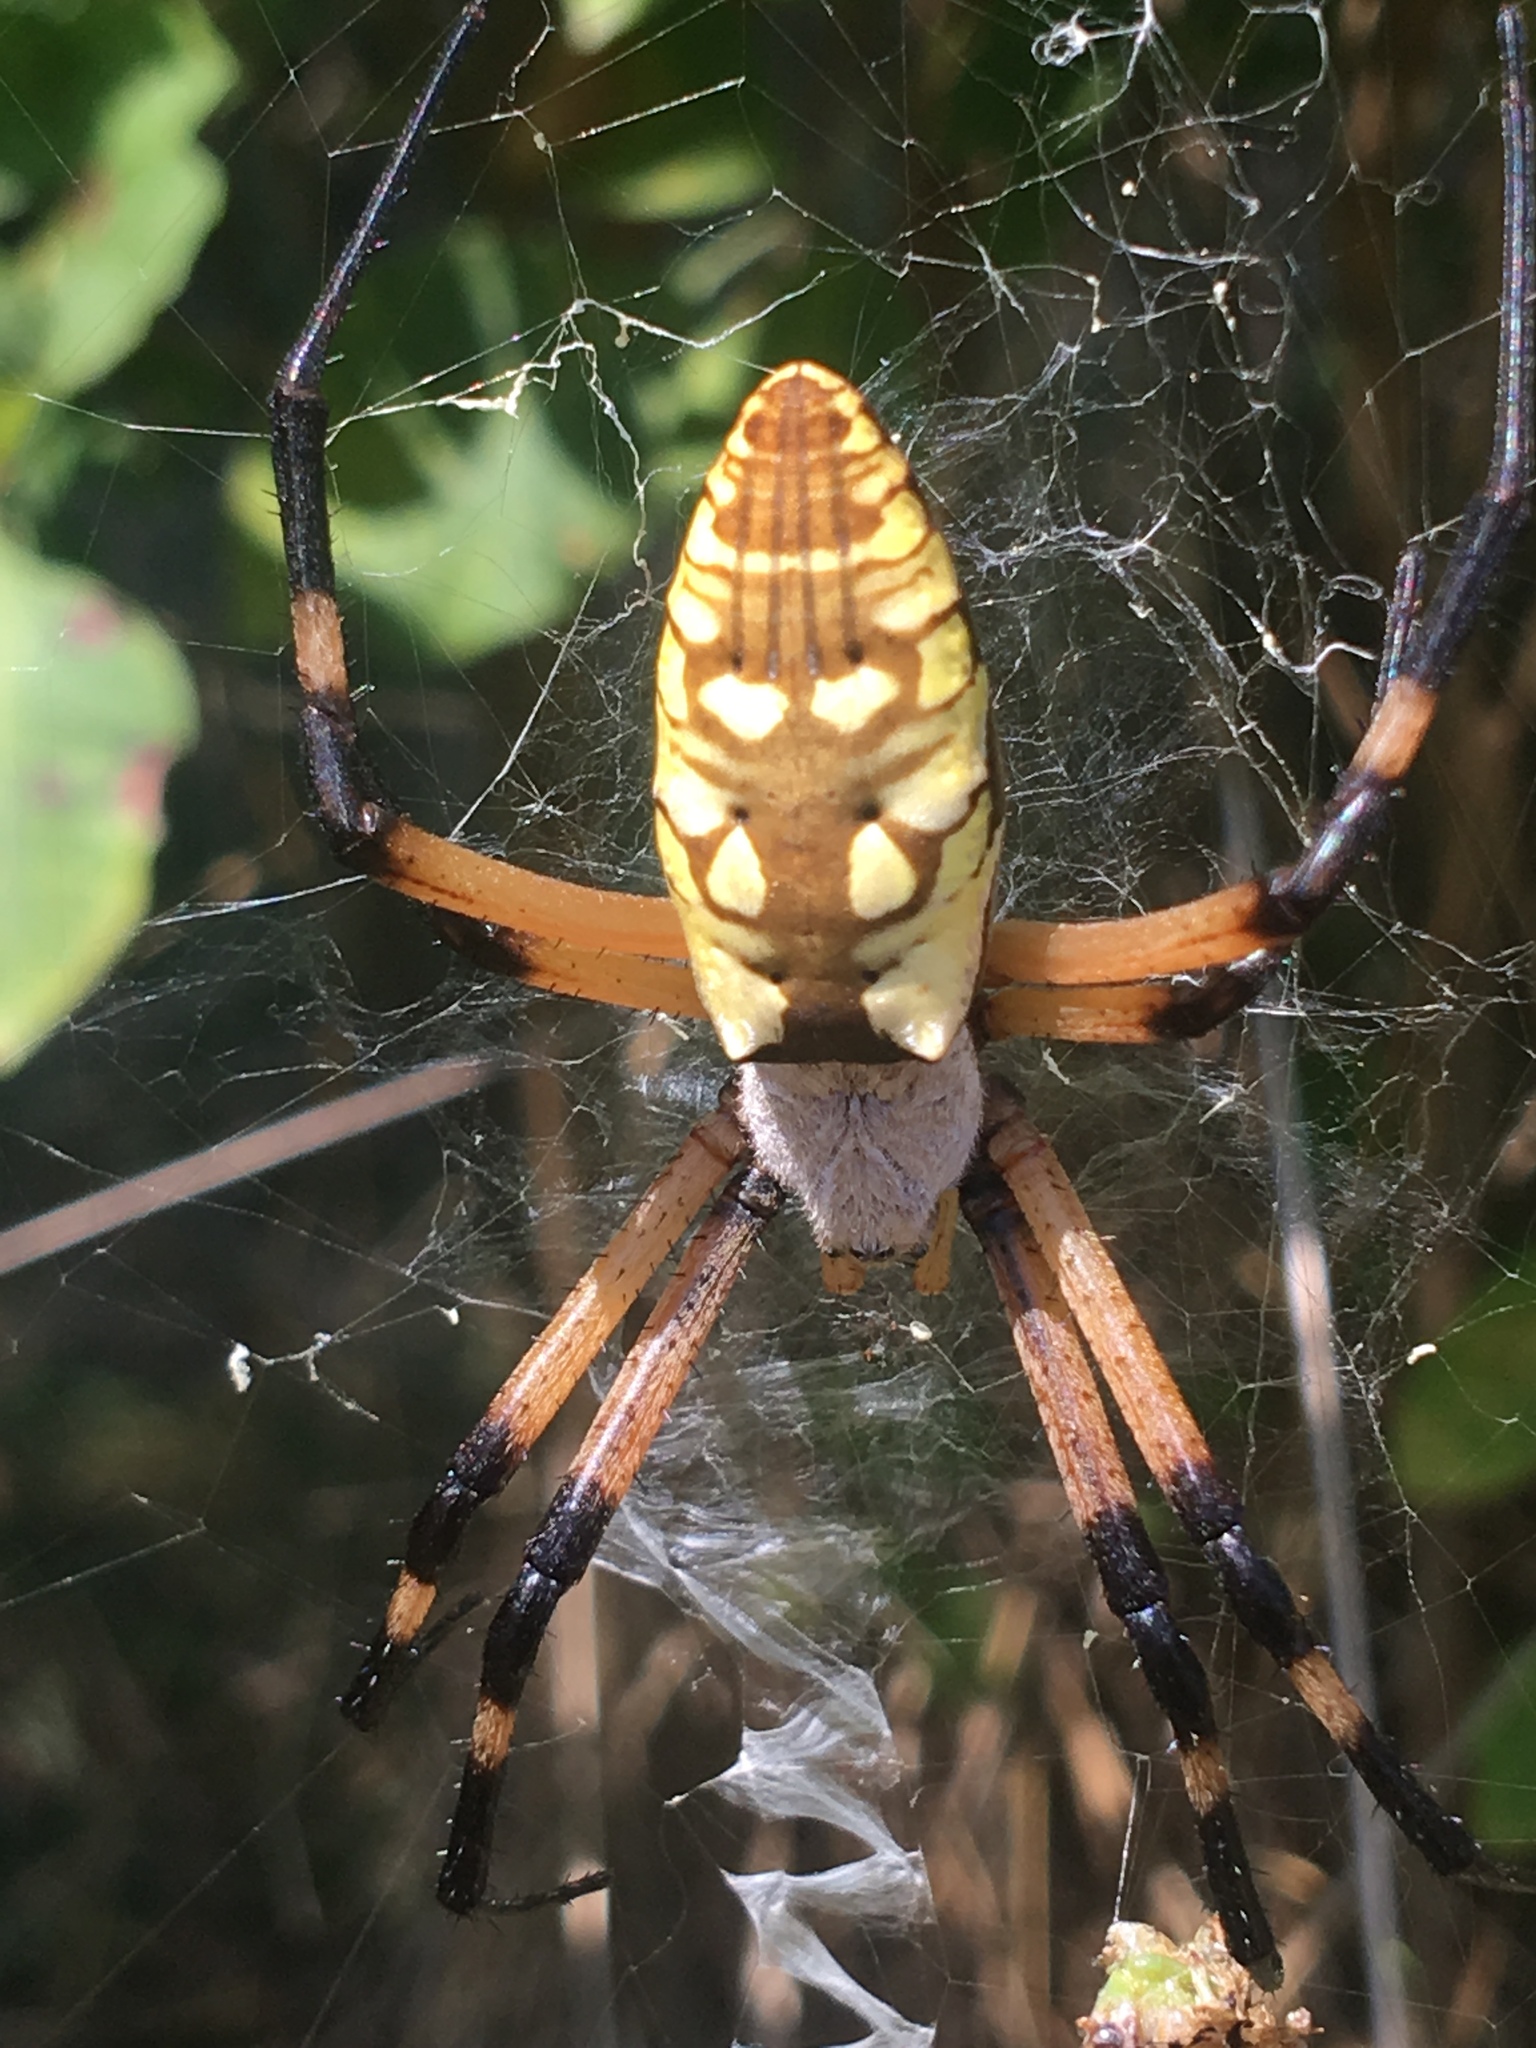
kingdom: Animalia
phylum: Arthropoda
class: Arachnida
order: Araneae
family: Araneidae
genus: Argiope
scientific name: Argiope aurantia
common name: Orb weavers
